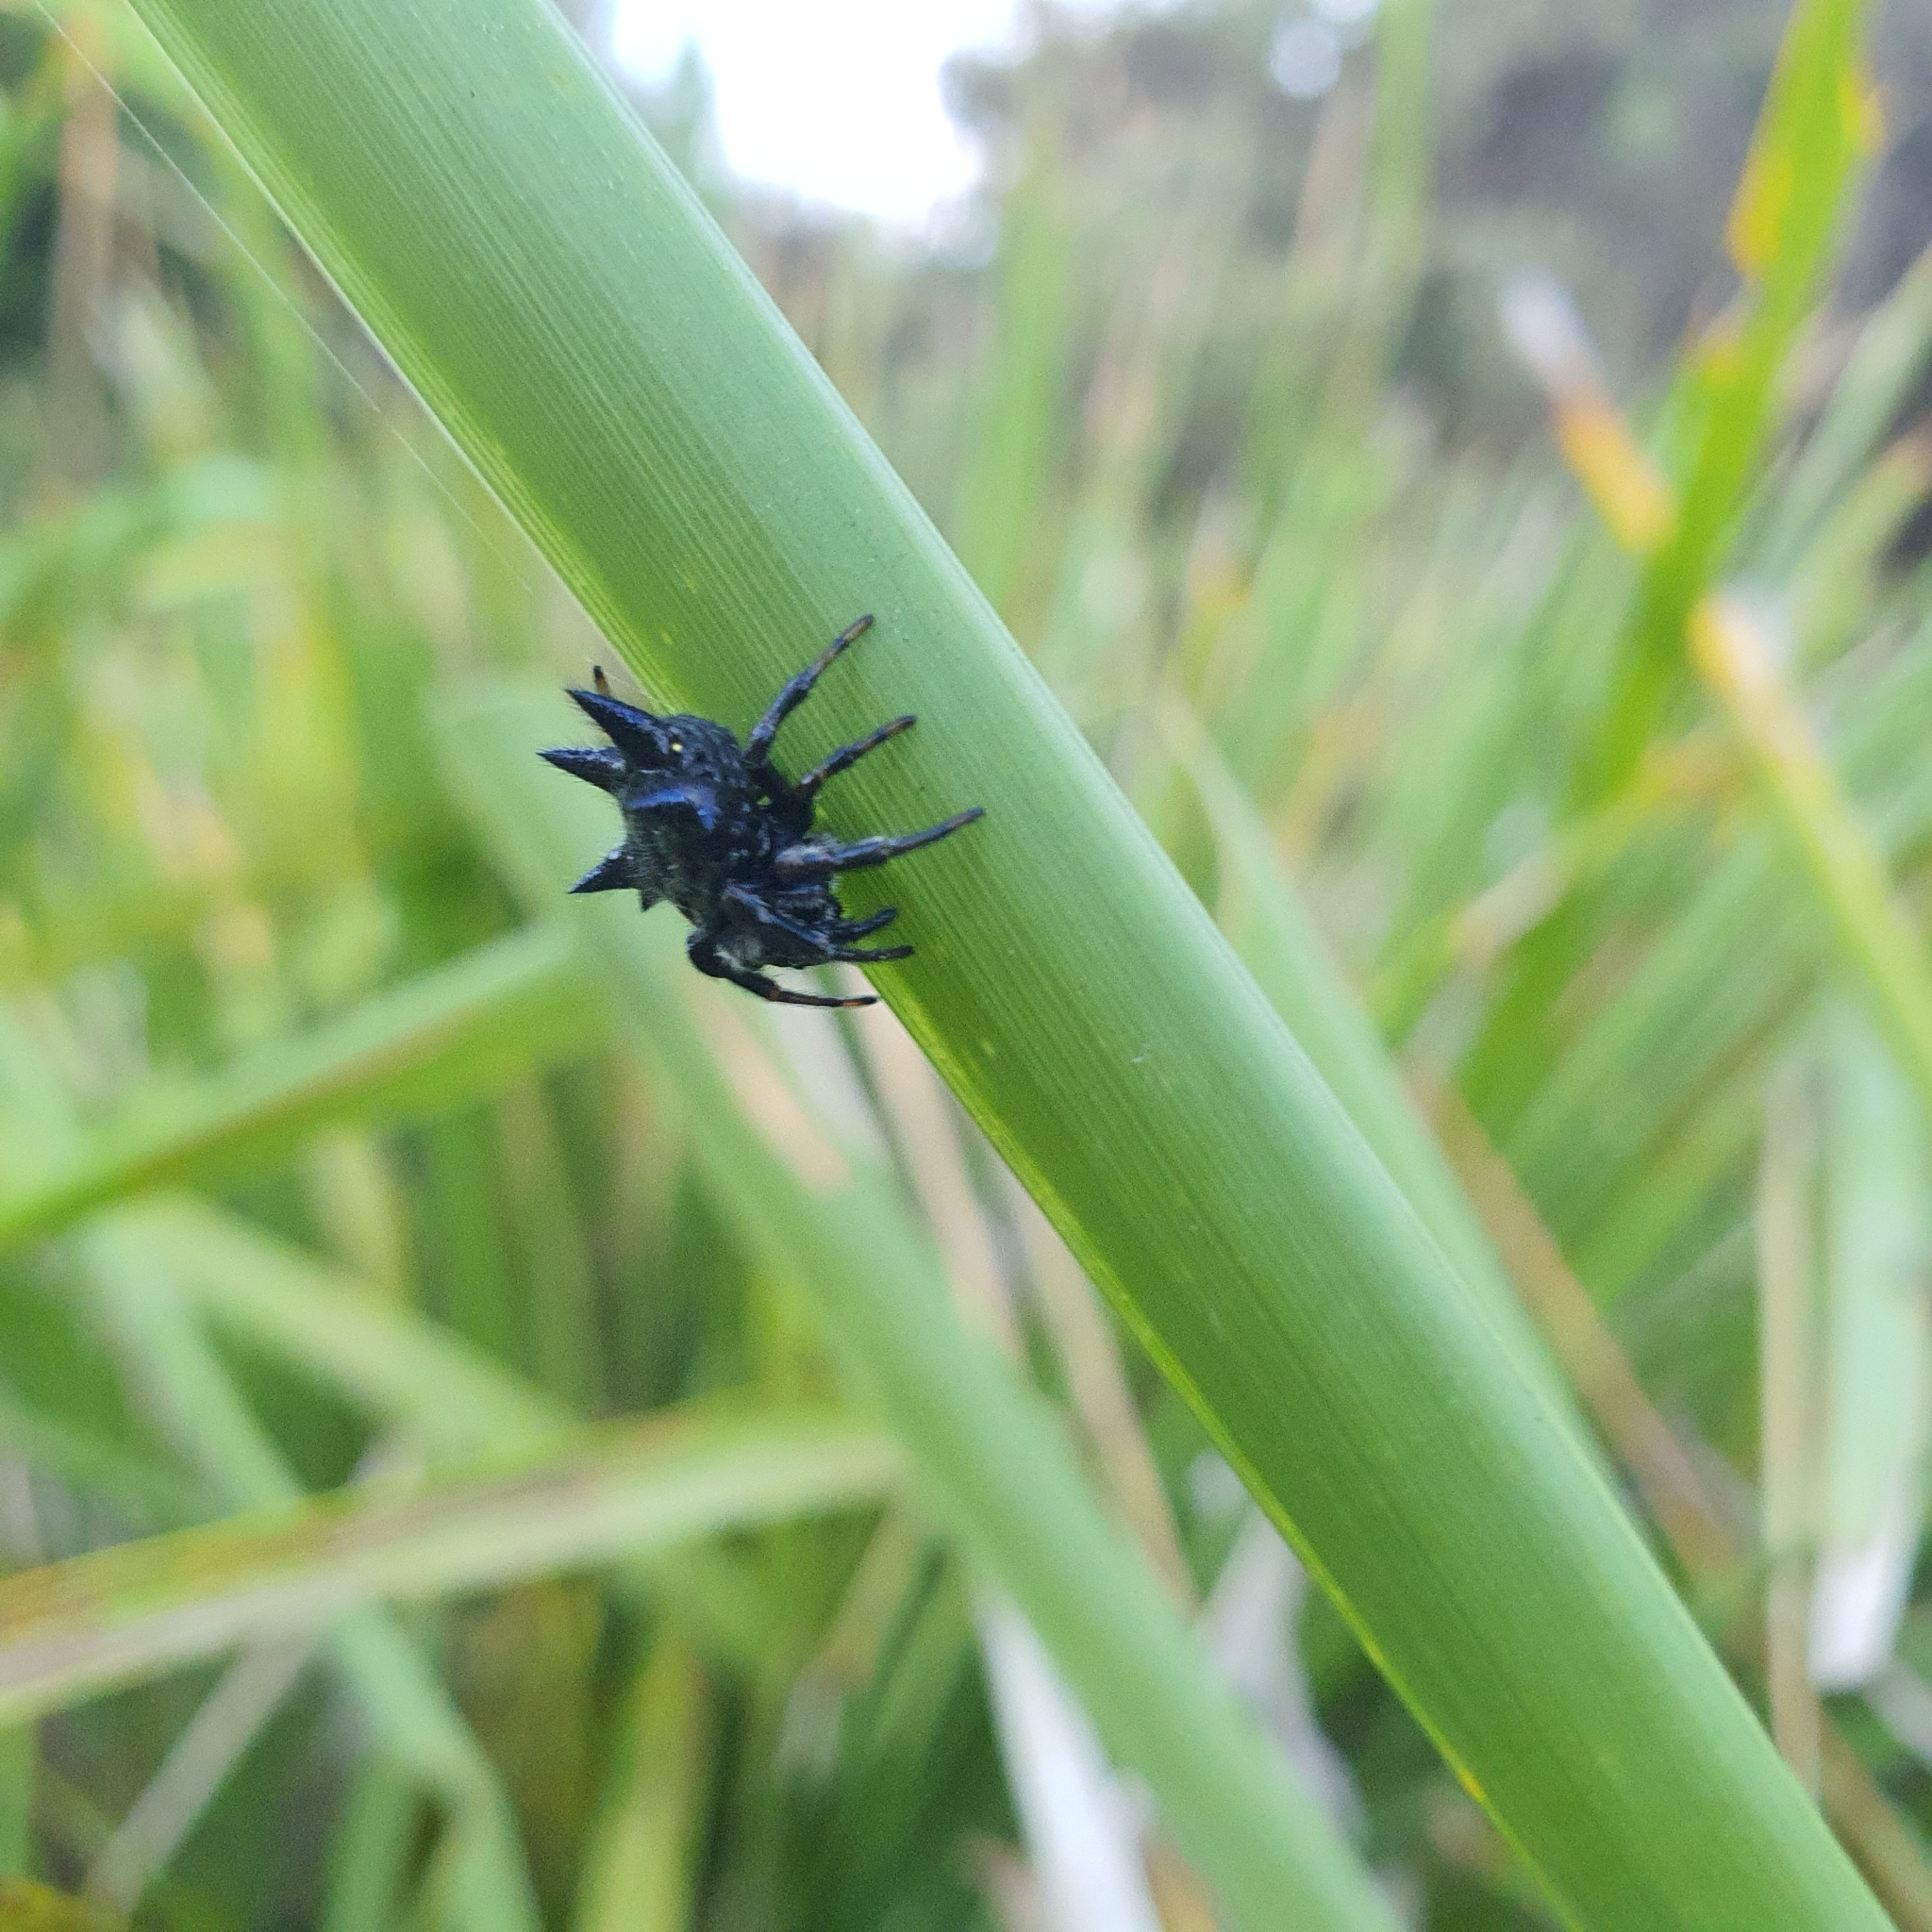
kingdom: Animalia
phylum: Arthropoda
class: Arachnida
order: Araneae
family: Araneidae
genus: Austracantha
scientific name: Austracantha minax
